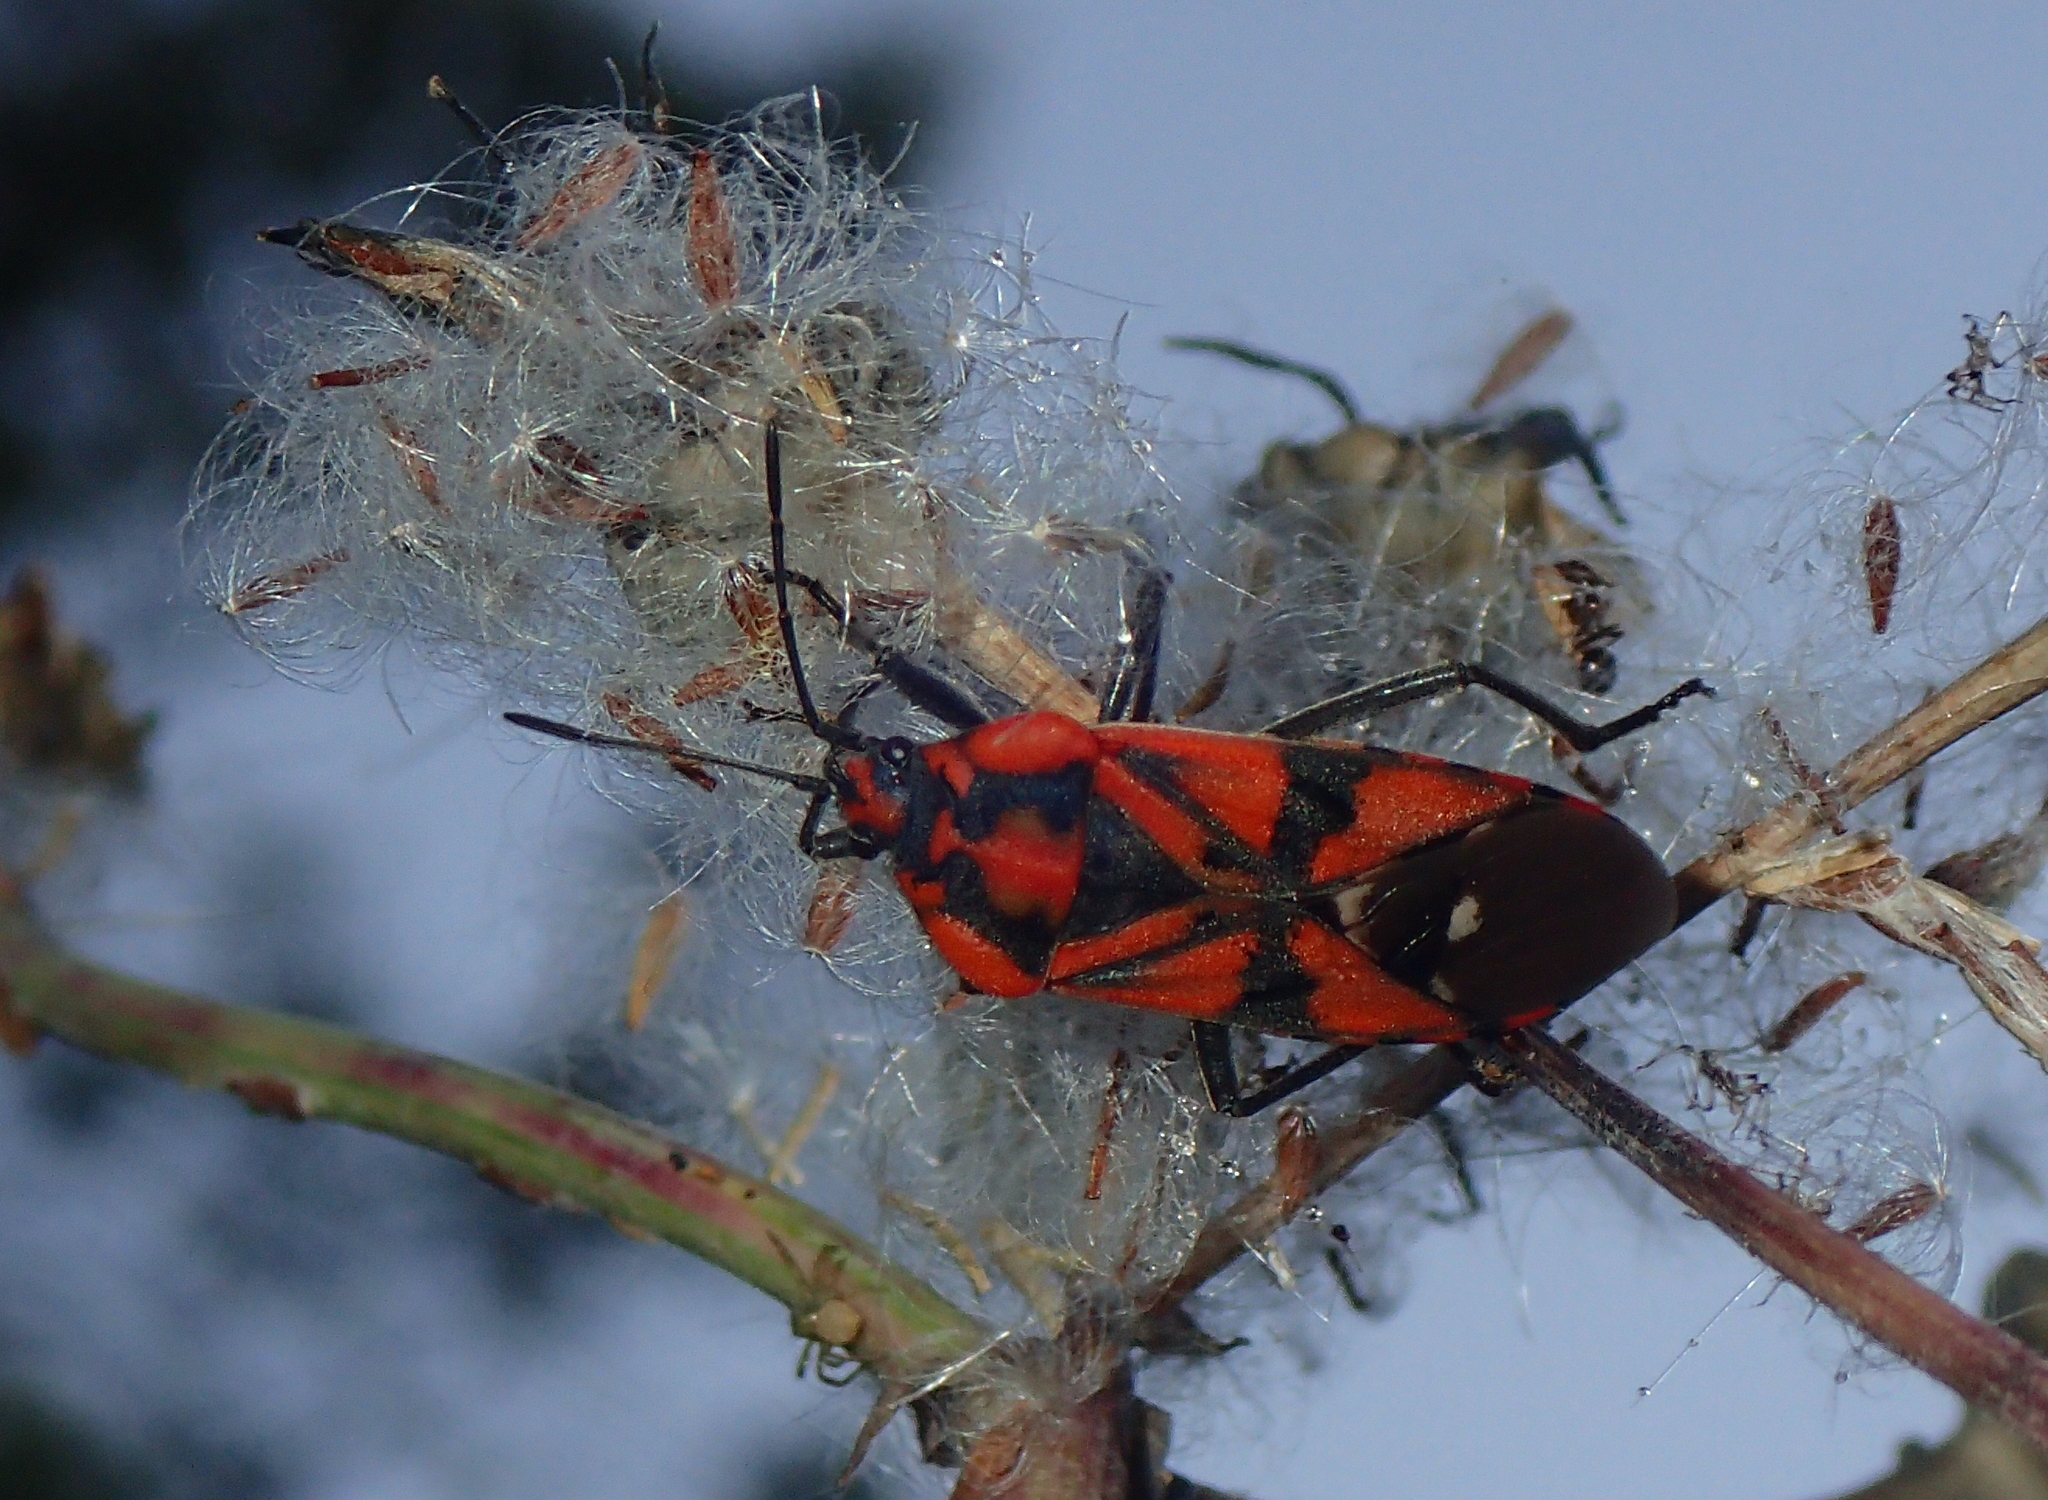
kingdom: Animalia
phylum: Arthropoda
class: Insecta
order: Hemiptera
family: Lygaeidae
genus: Spilostethus
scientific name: Spilostethus pandurus
